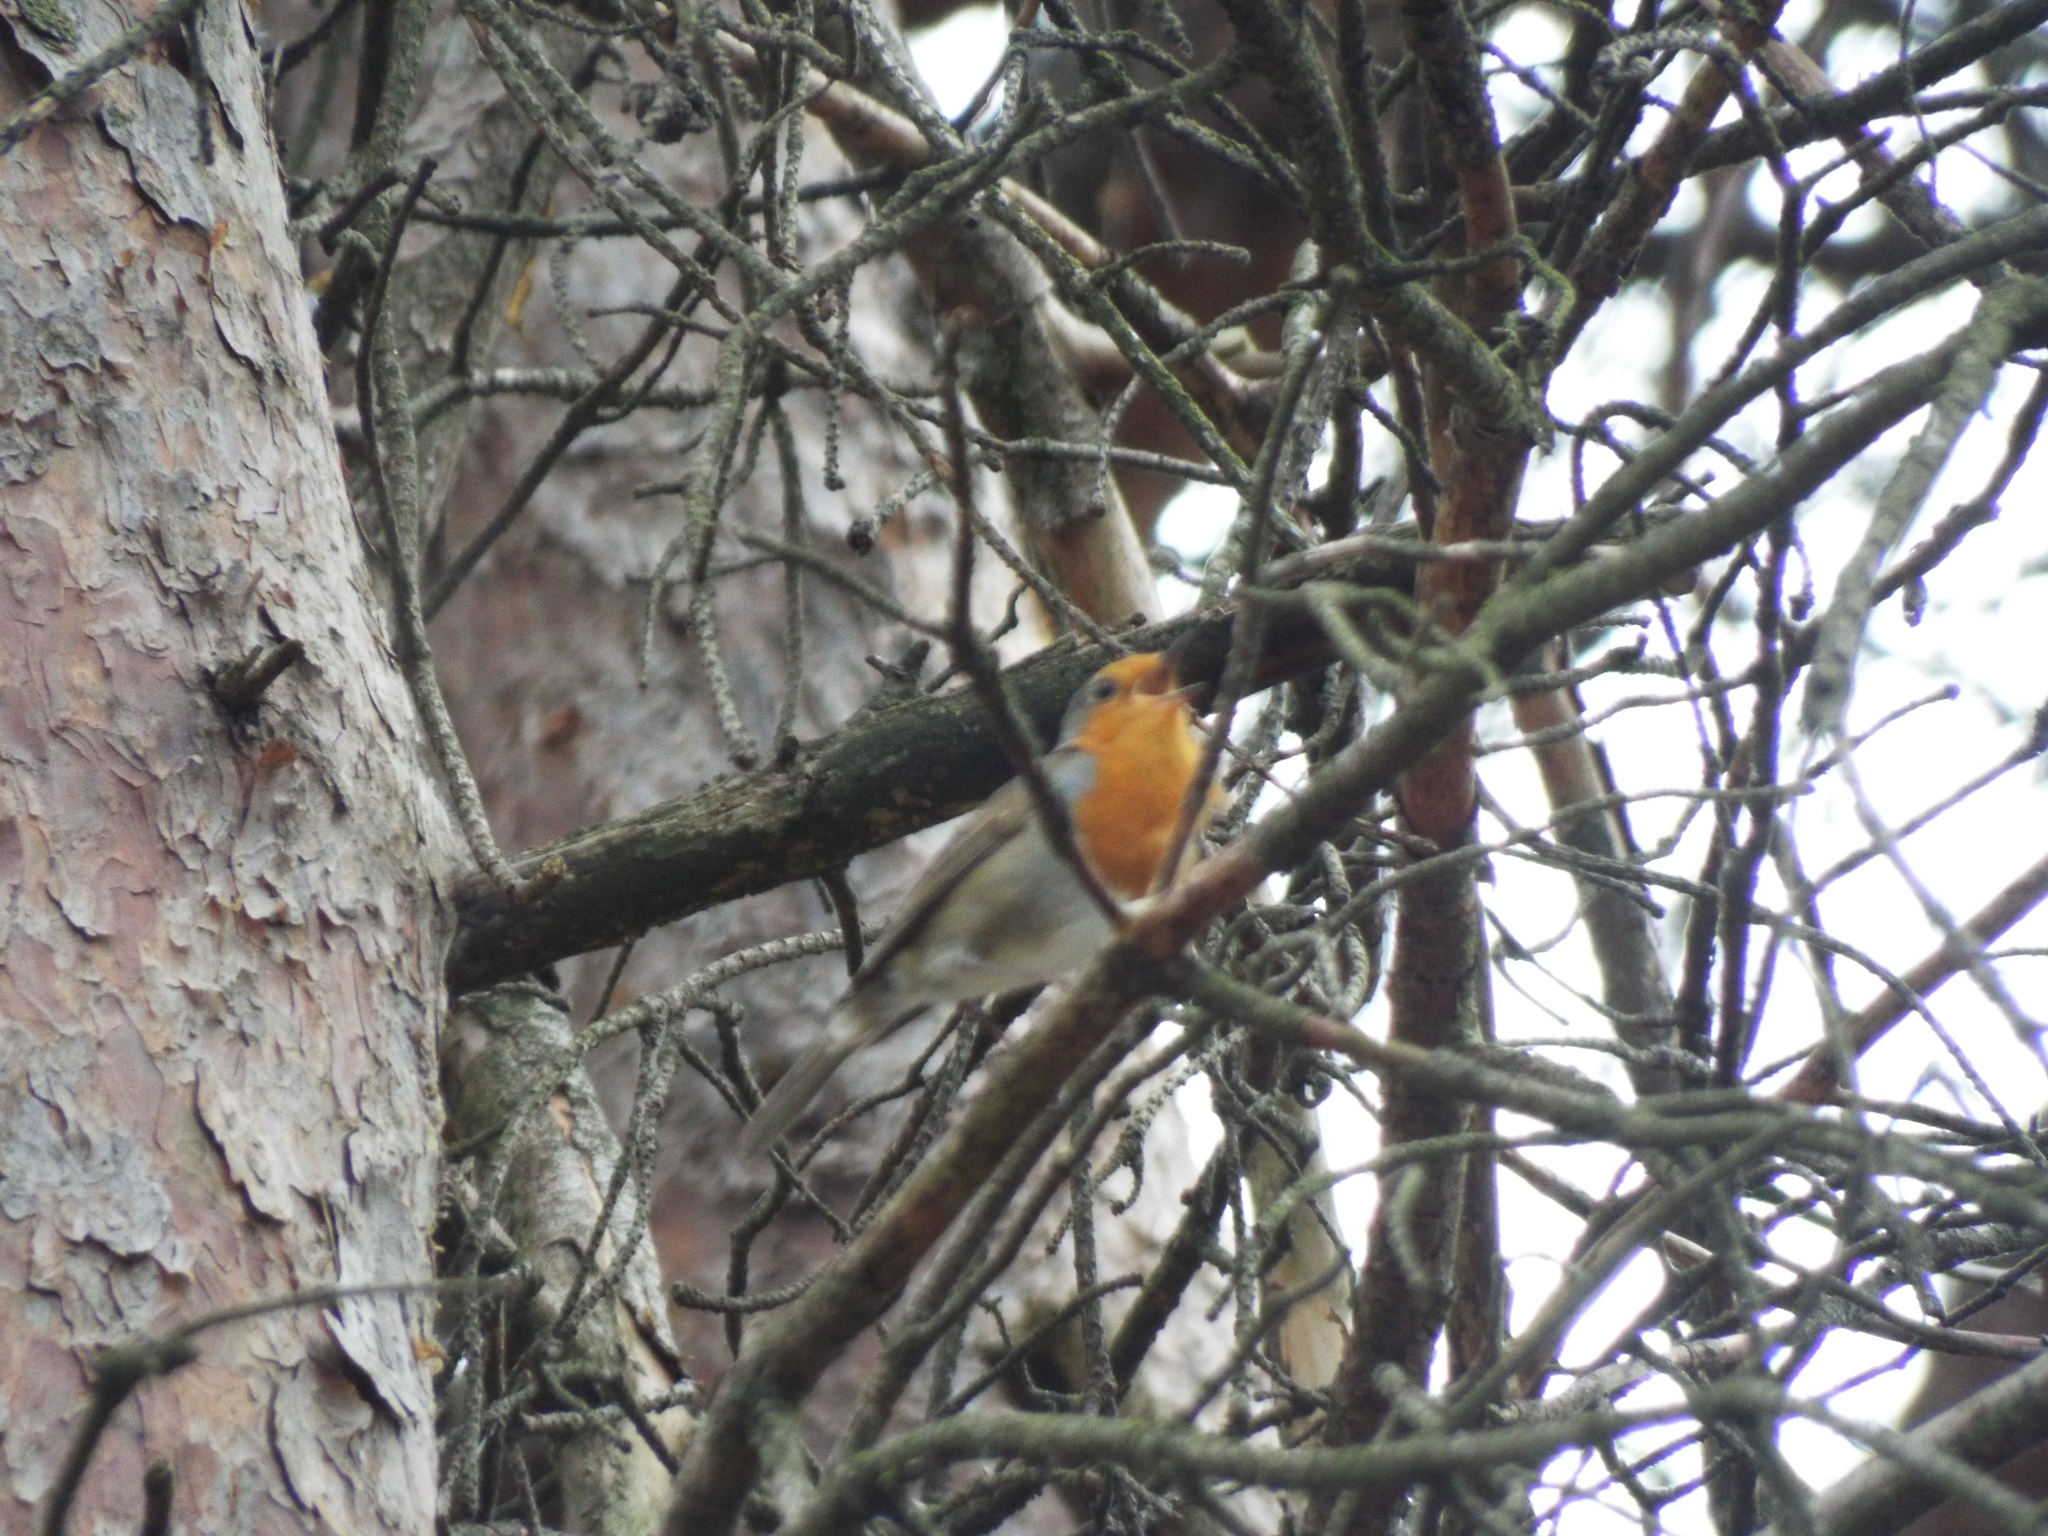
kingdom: Animalia
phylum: Chordata
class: Aves
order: Passeriformes
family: Muscicapidae
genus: Erithacus
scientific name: Erithacus rubecula
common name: European robin
